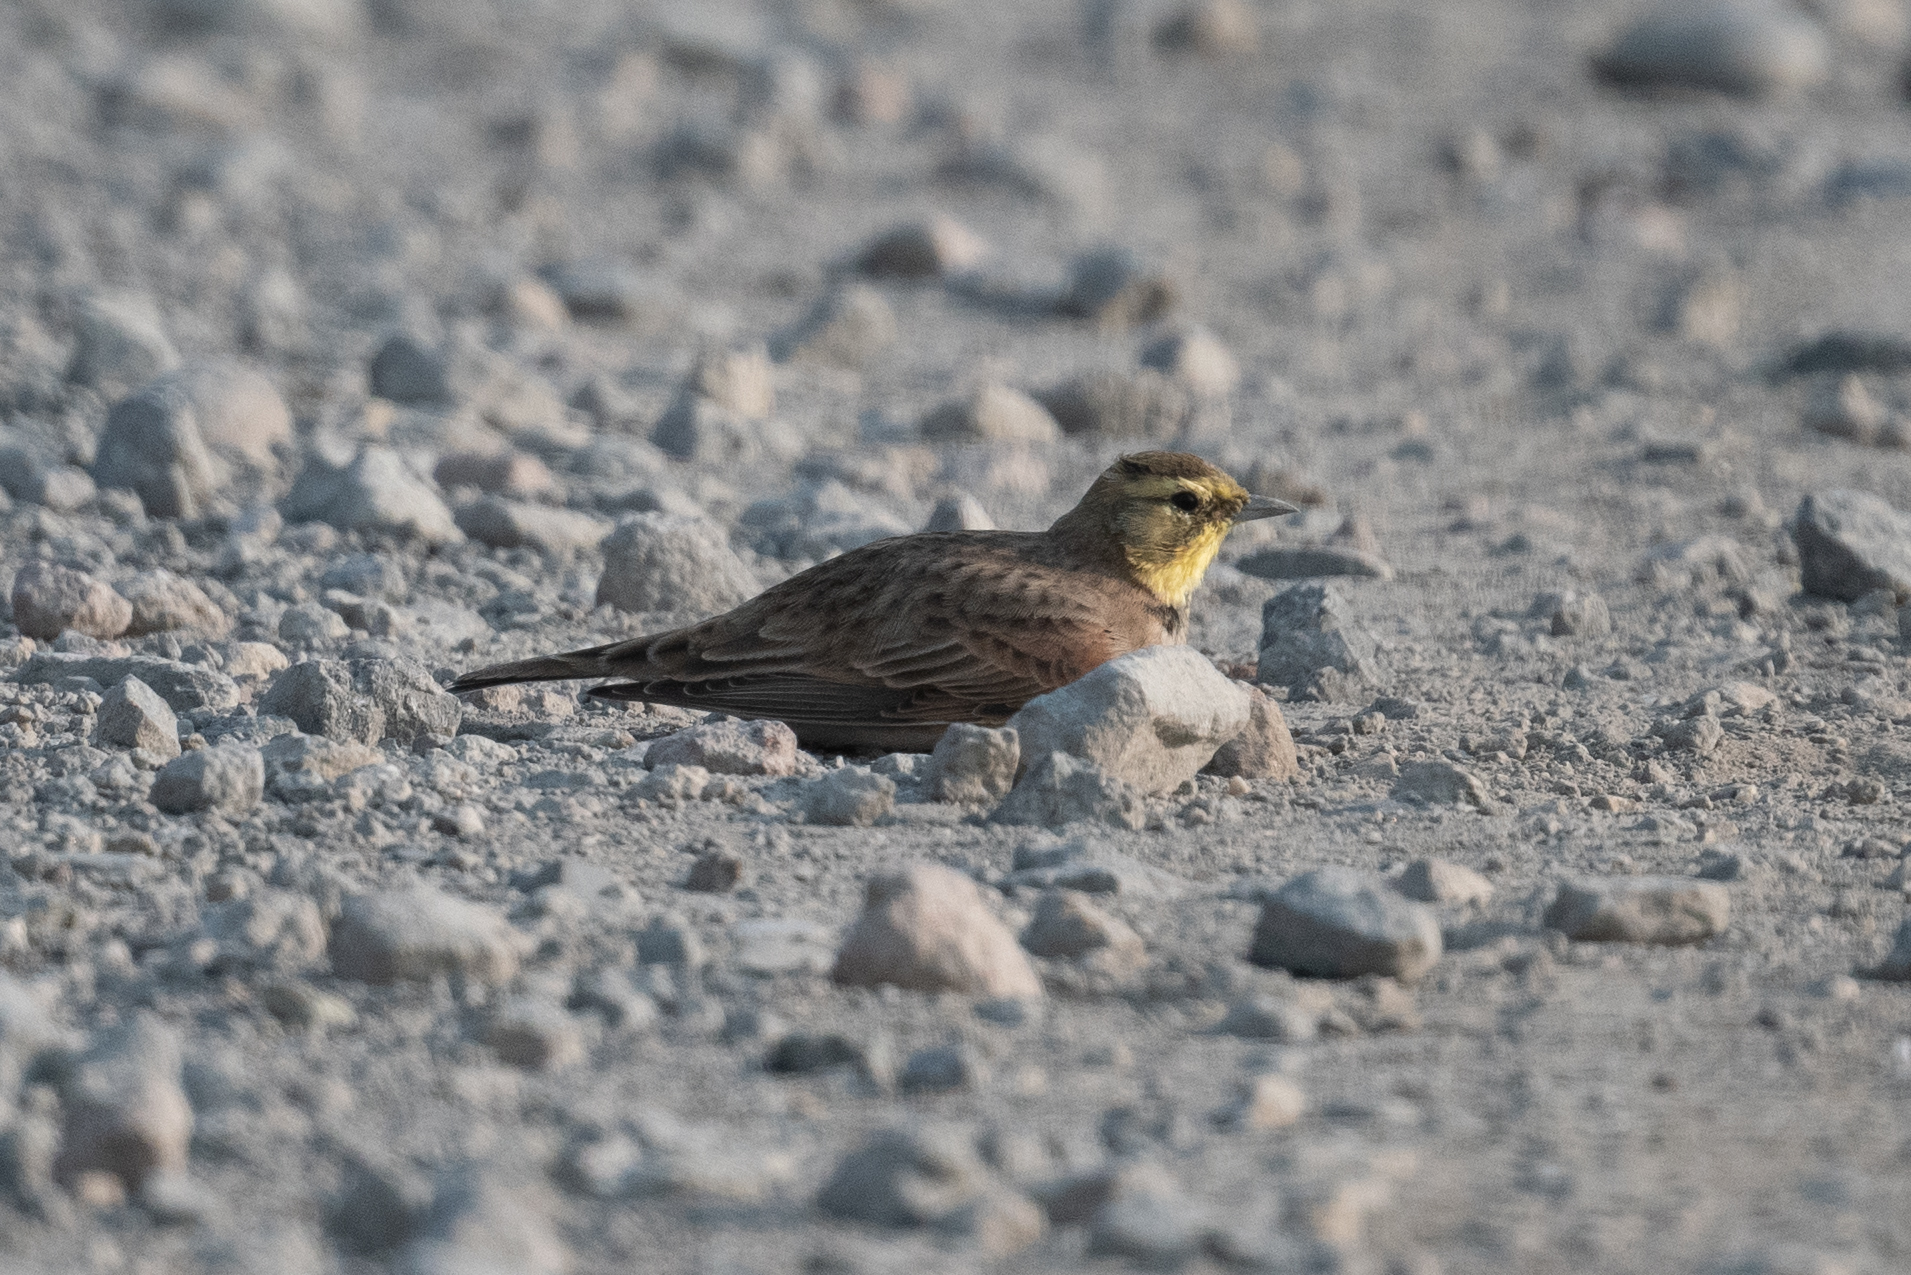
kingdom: Animalia
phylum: Chordata
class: Aves
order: Passeriformes
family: Alaudidae
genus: Eremophila
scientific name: Eremophila alpestris
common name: Horned lark
